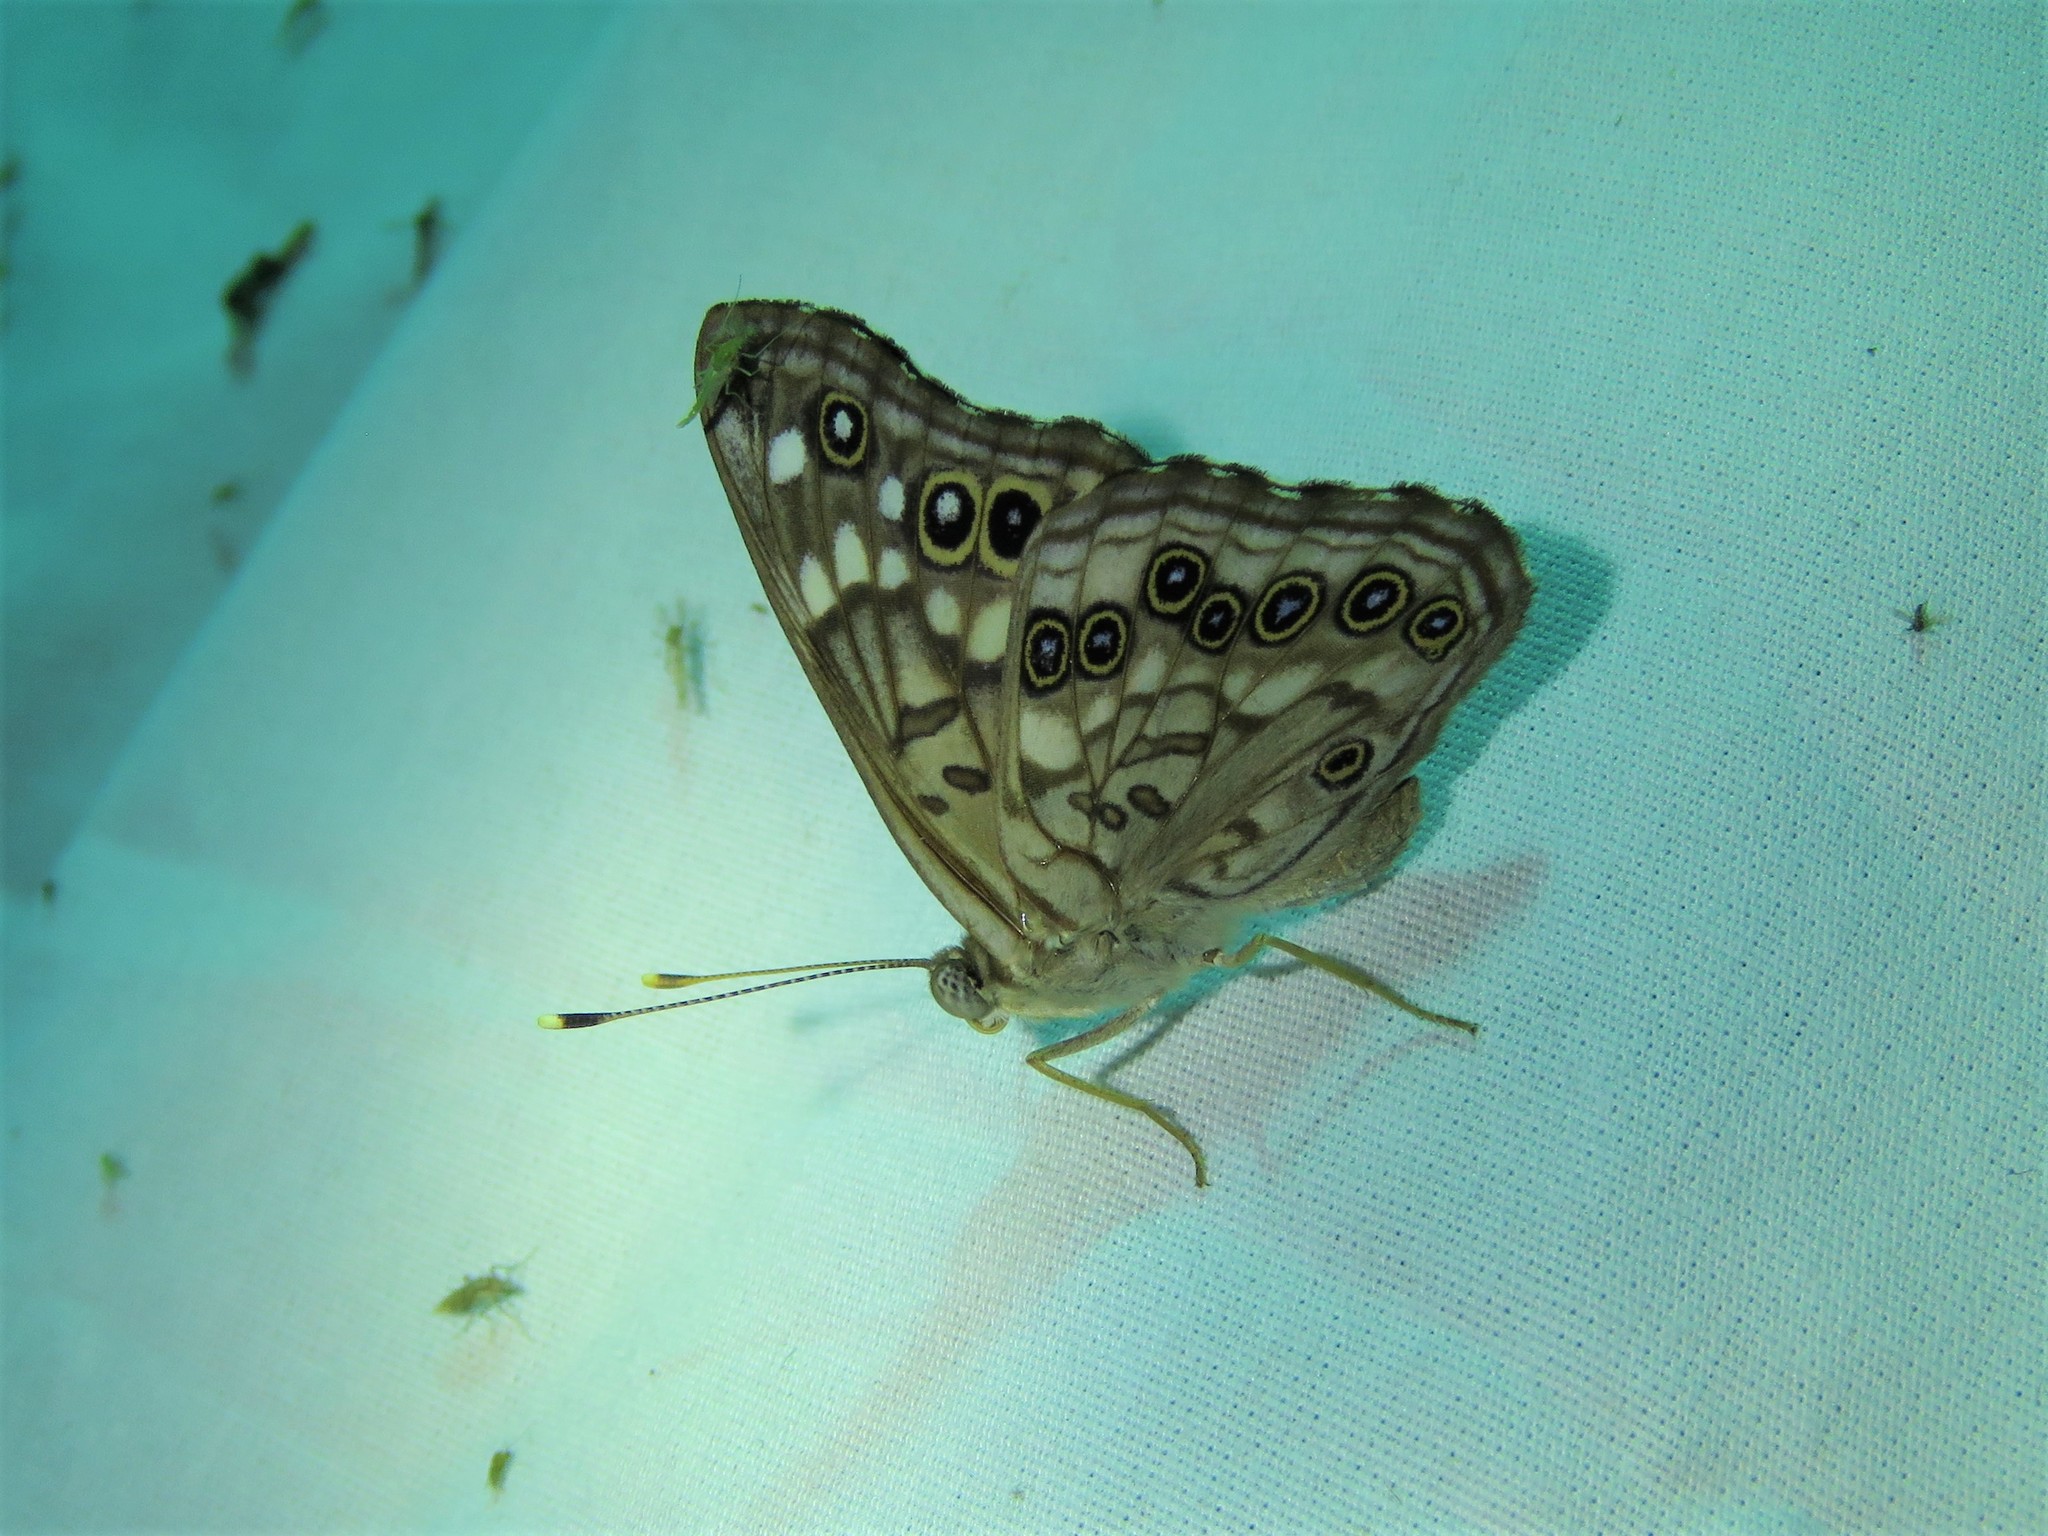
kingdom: Animalia
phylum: Arthropoda
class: Insecta
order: Lepidoptera
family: Nymphalidae
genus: Asterocampa
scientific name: Asterocampa celtis
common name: Hackberry emperor
